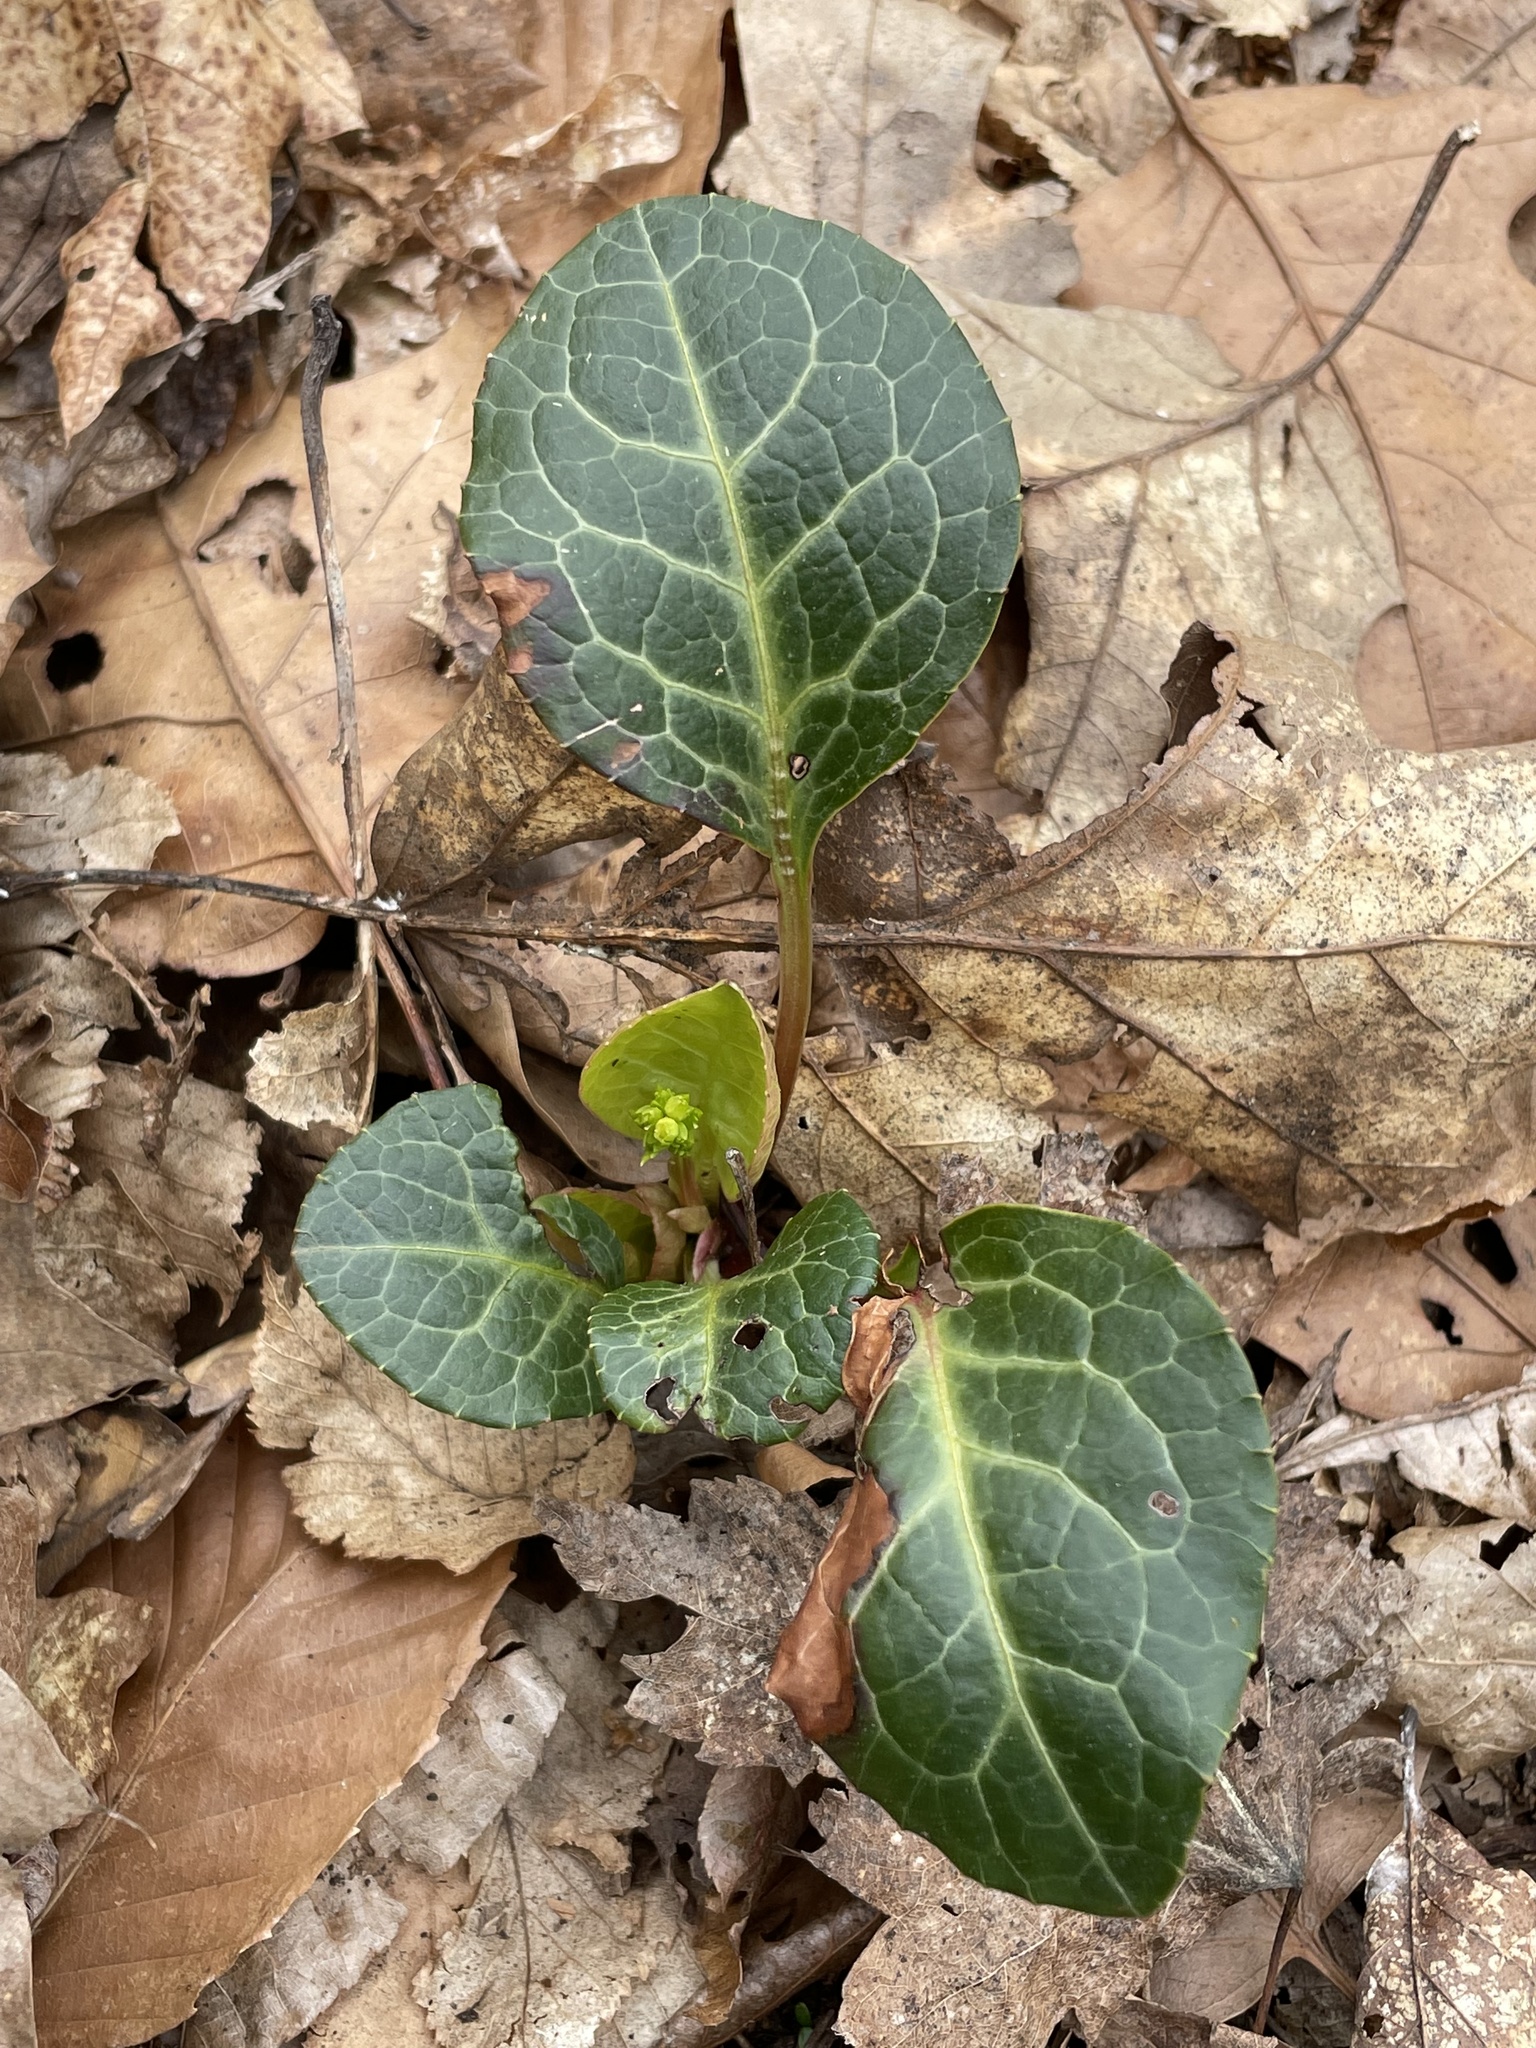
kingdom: Plantae
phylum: Tracheophyta
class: Magnoliopsida
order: Ericales
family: Ericaceae
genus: Pyrola
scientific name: Pyrola americana
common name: American wintergreen
